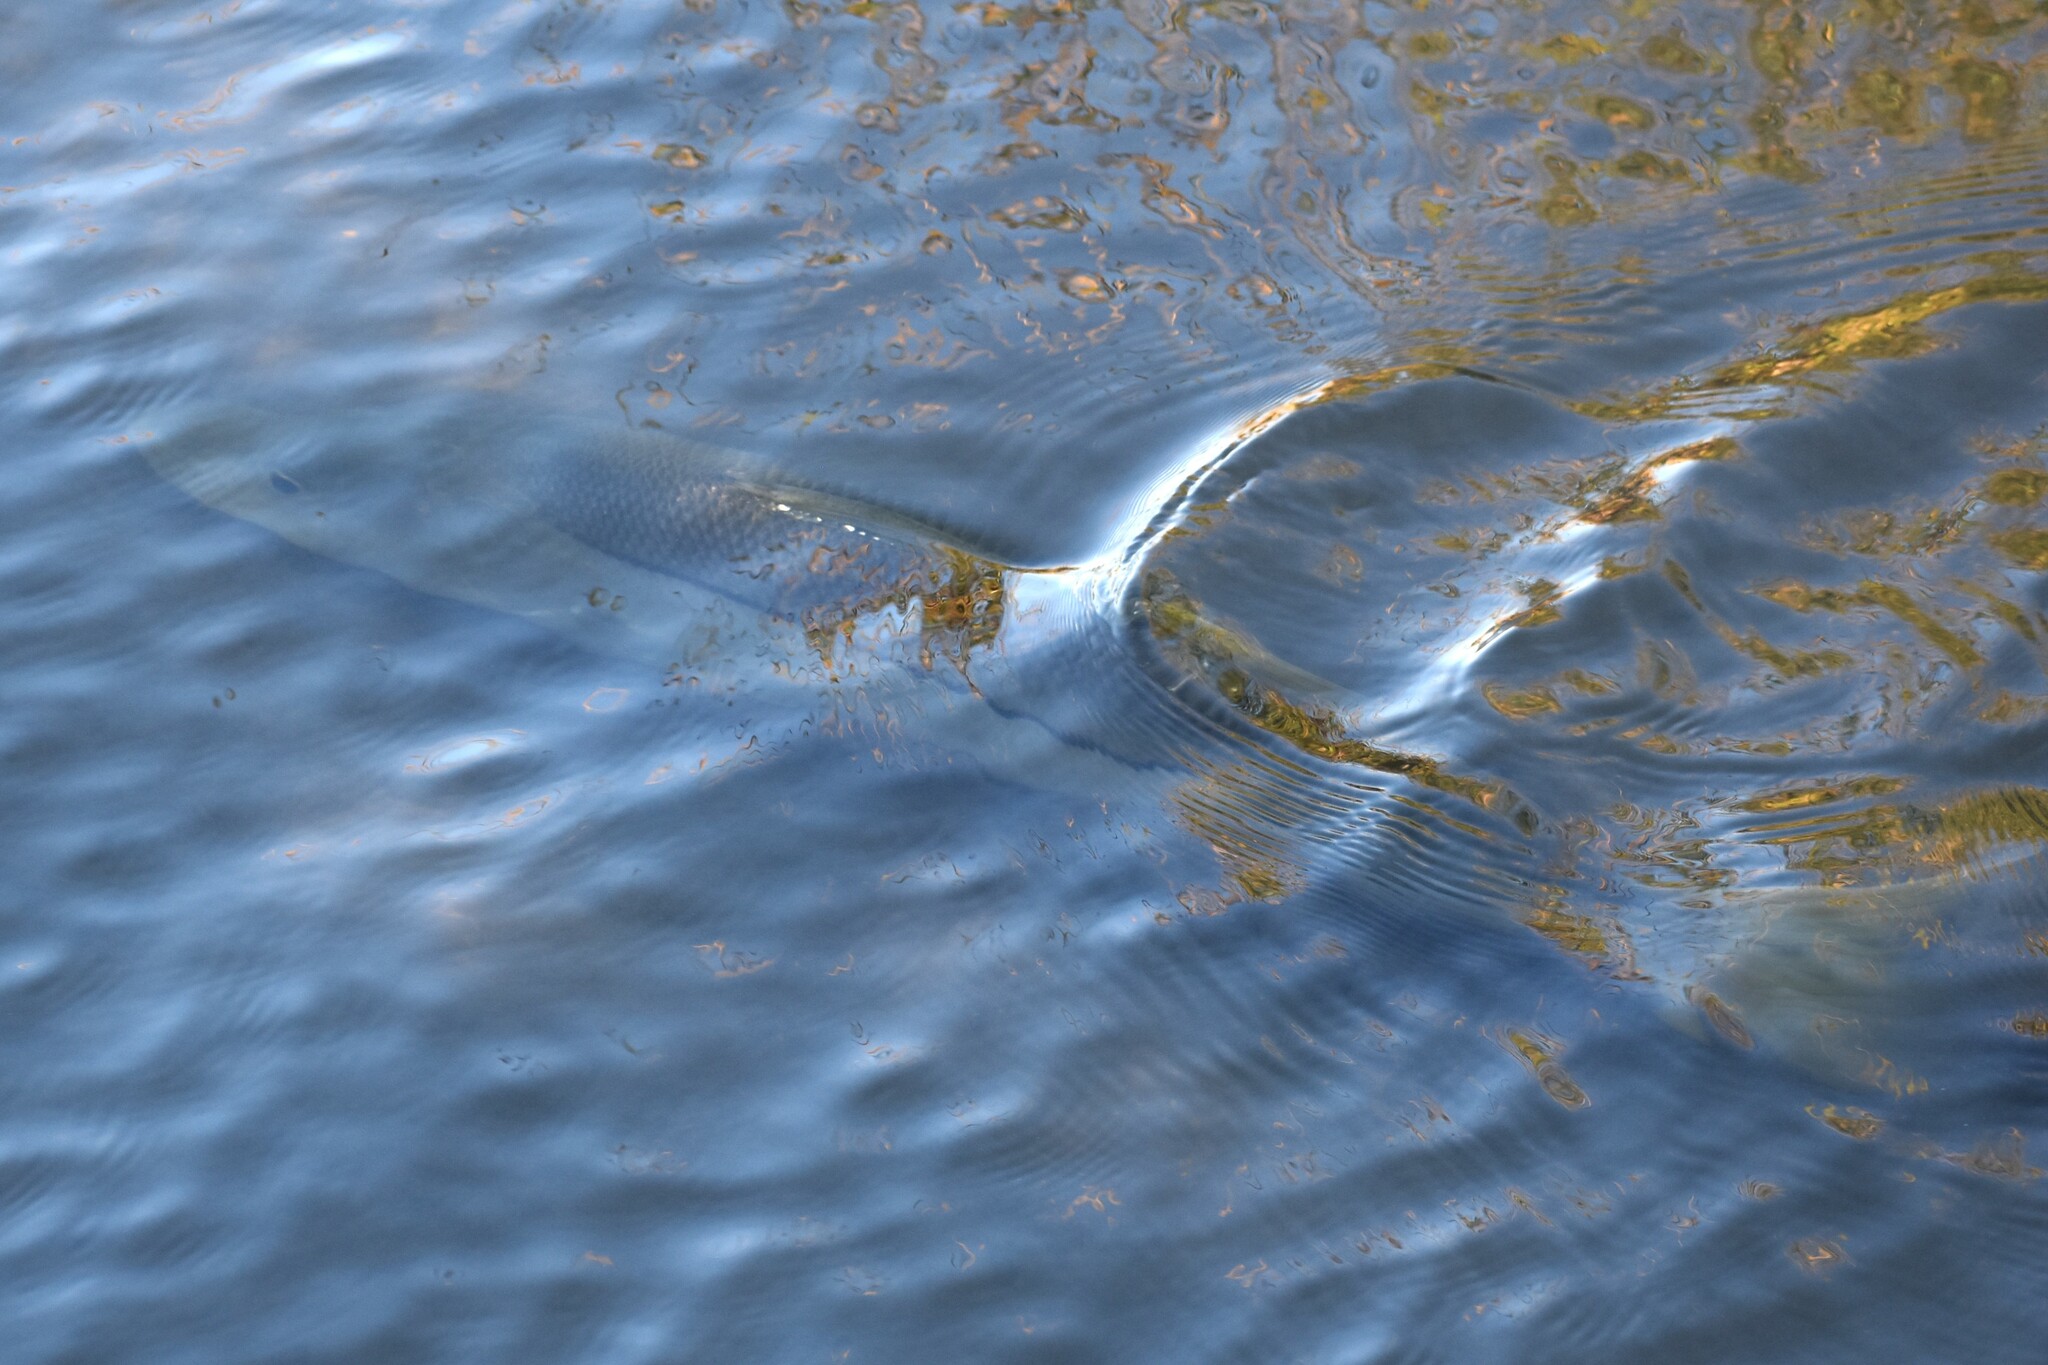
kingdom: Animalia
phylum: Chordata
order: Perciformes
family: Centropomidae
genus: Centropomus
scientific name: Centropomus undecimalis
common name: Snook
